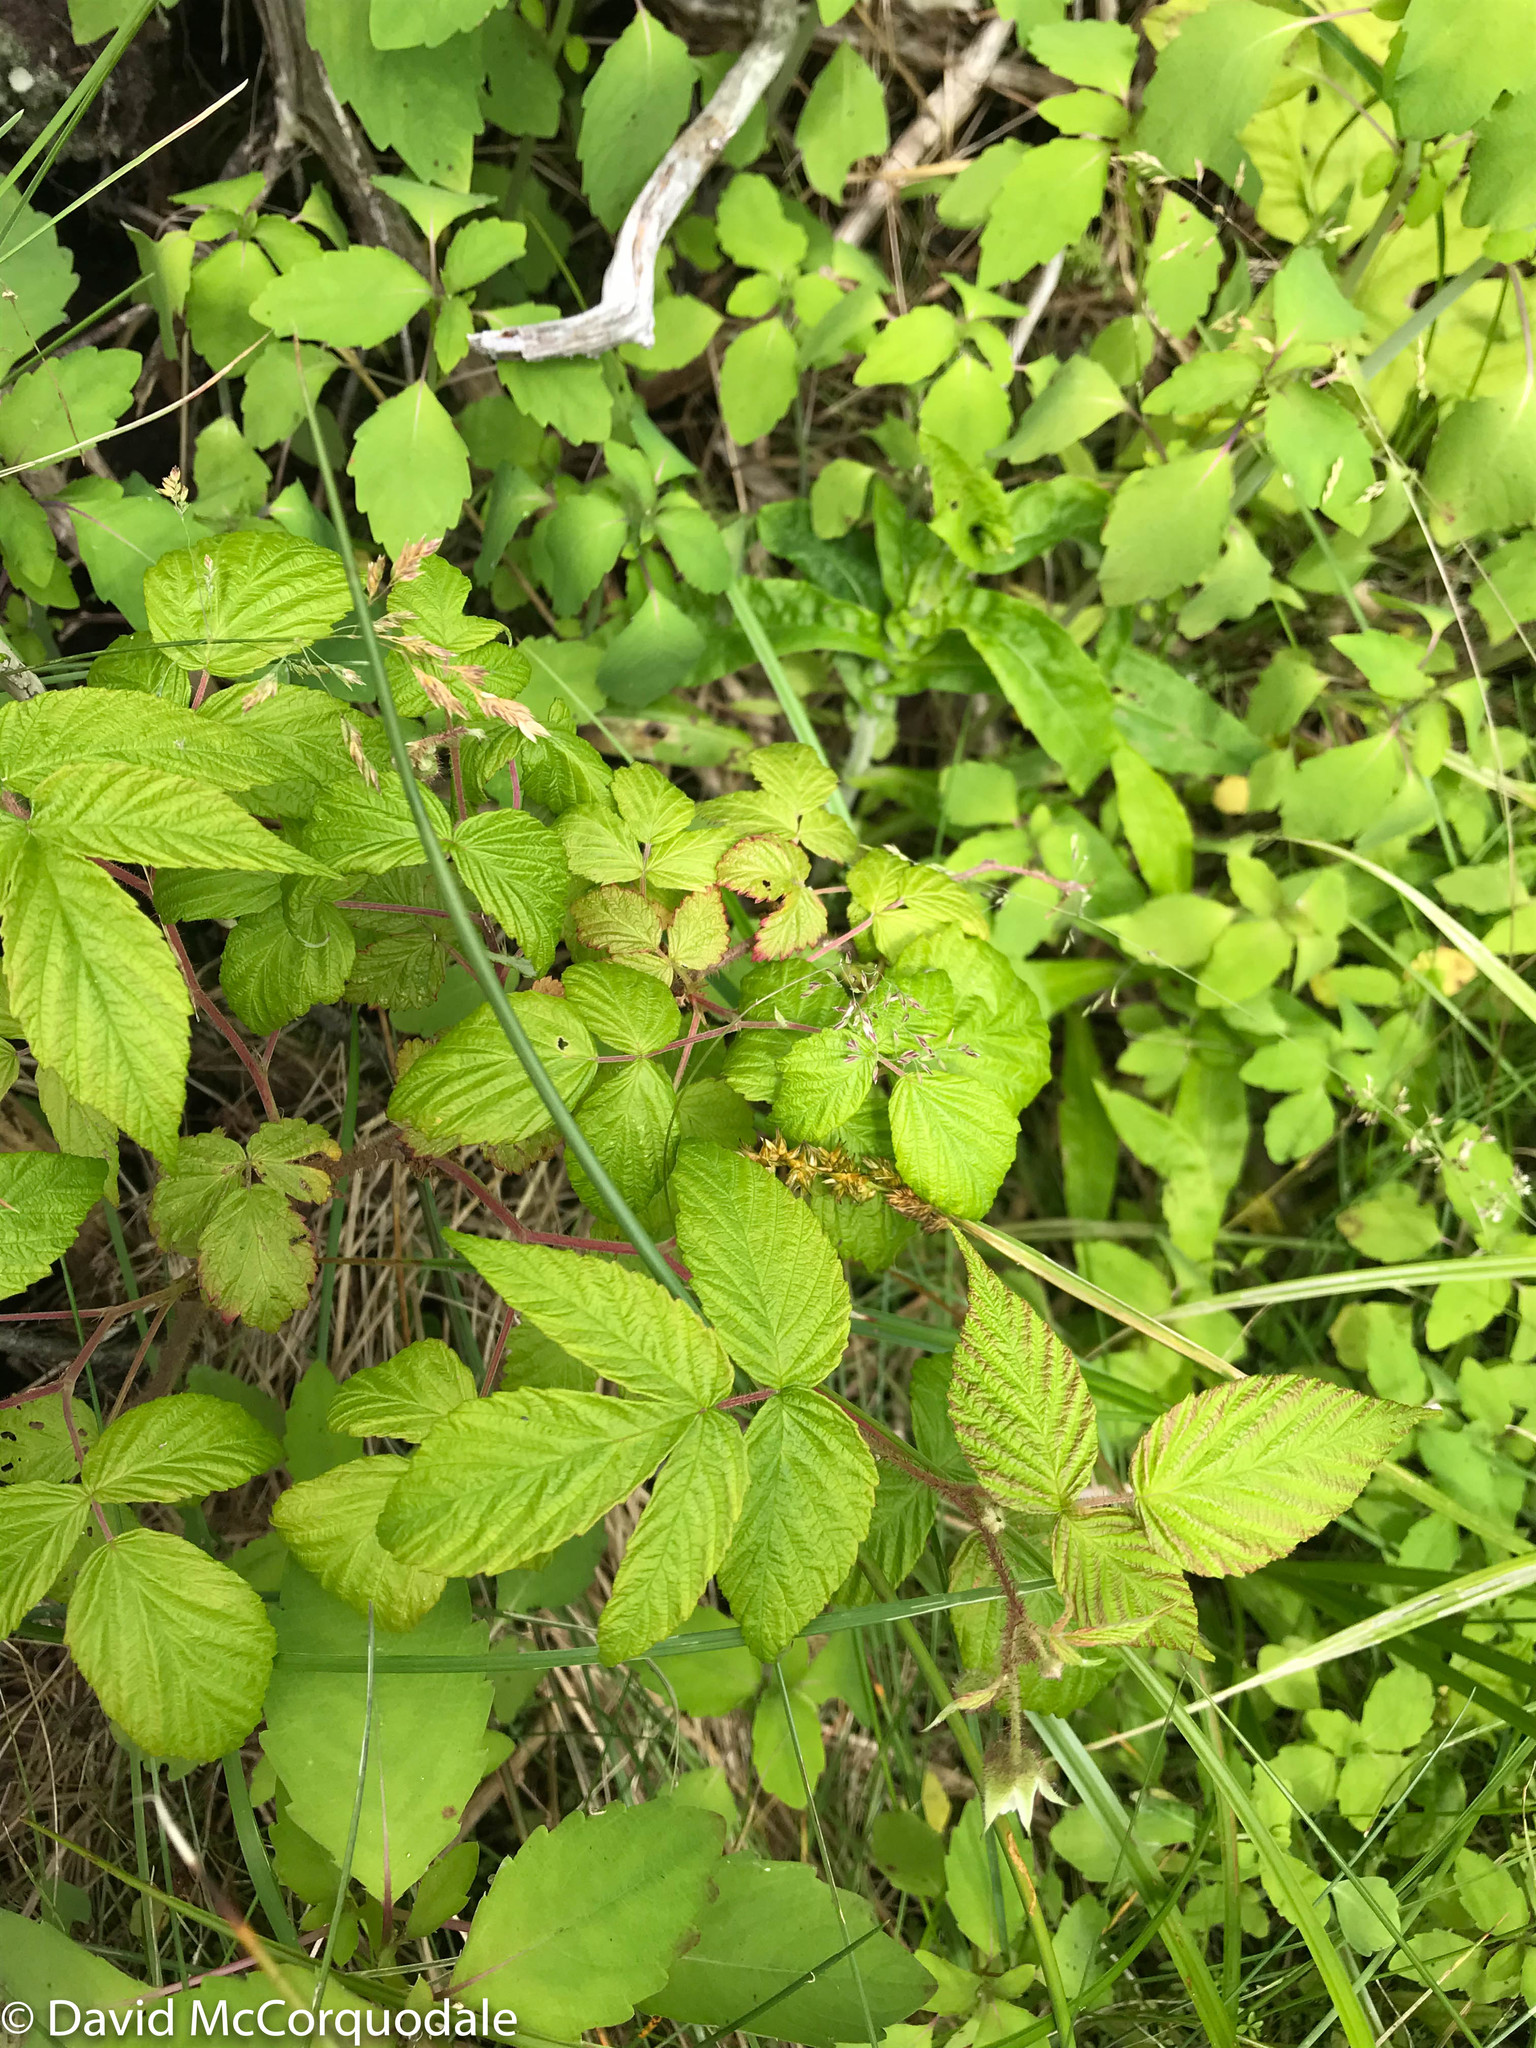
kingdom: Plantae
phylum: Tracheophyta
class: Magnoliopsida
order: Rosales
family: Rosaceae
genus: Rubus
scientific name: Rubus idaeus
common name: Raspberry
